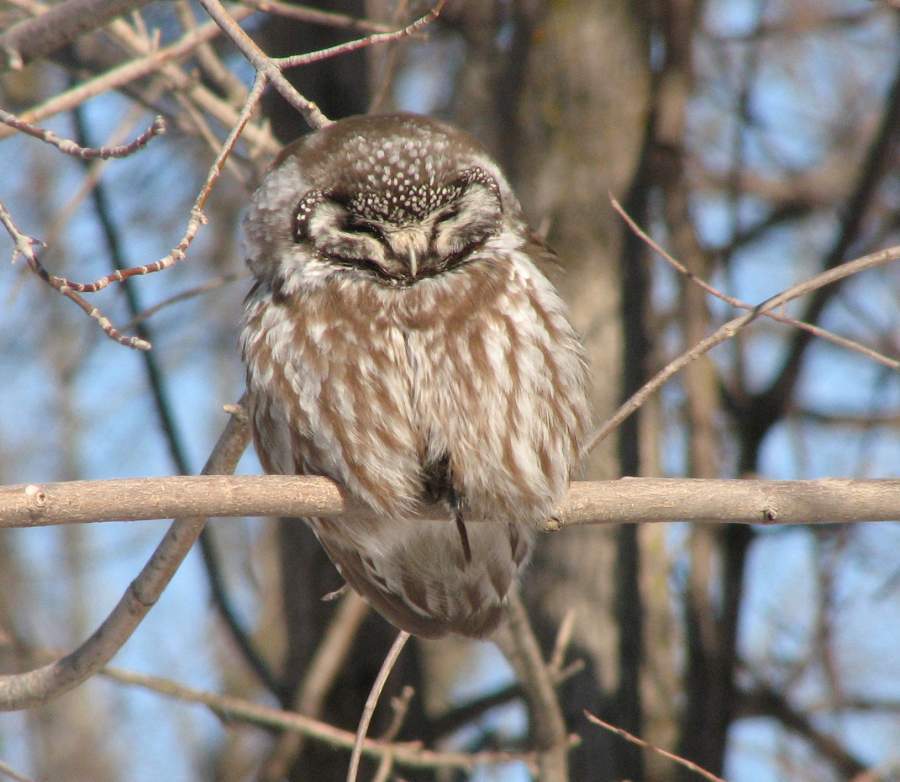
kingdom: Animalia
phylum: Chordata
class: Aves
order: Strigiformes
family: Strigidae
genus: Aegolius
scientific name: Aegolius funereus
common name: Boreal owl
